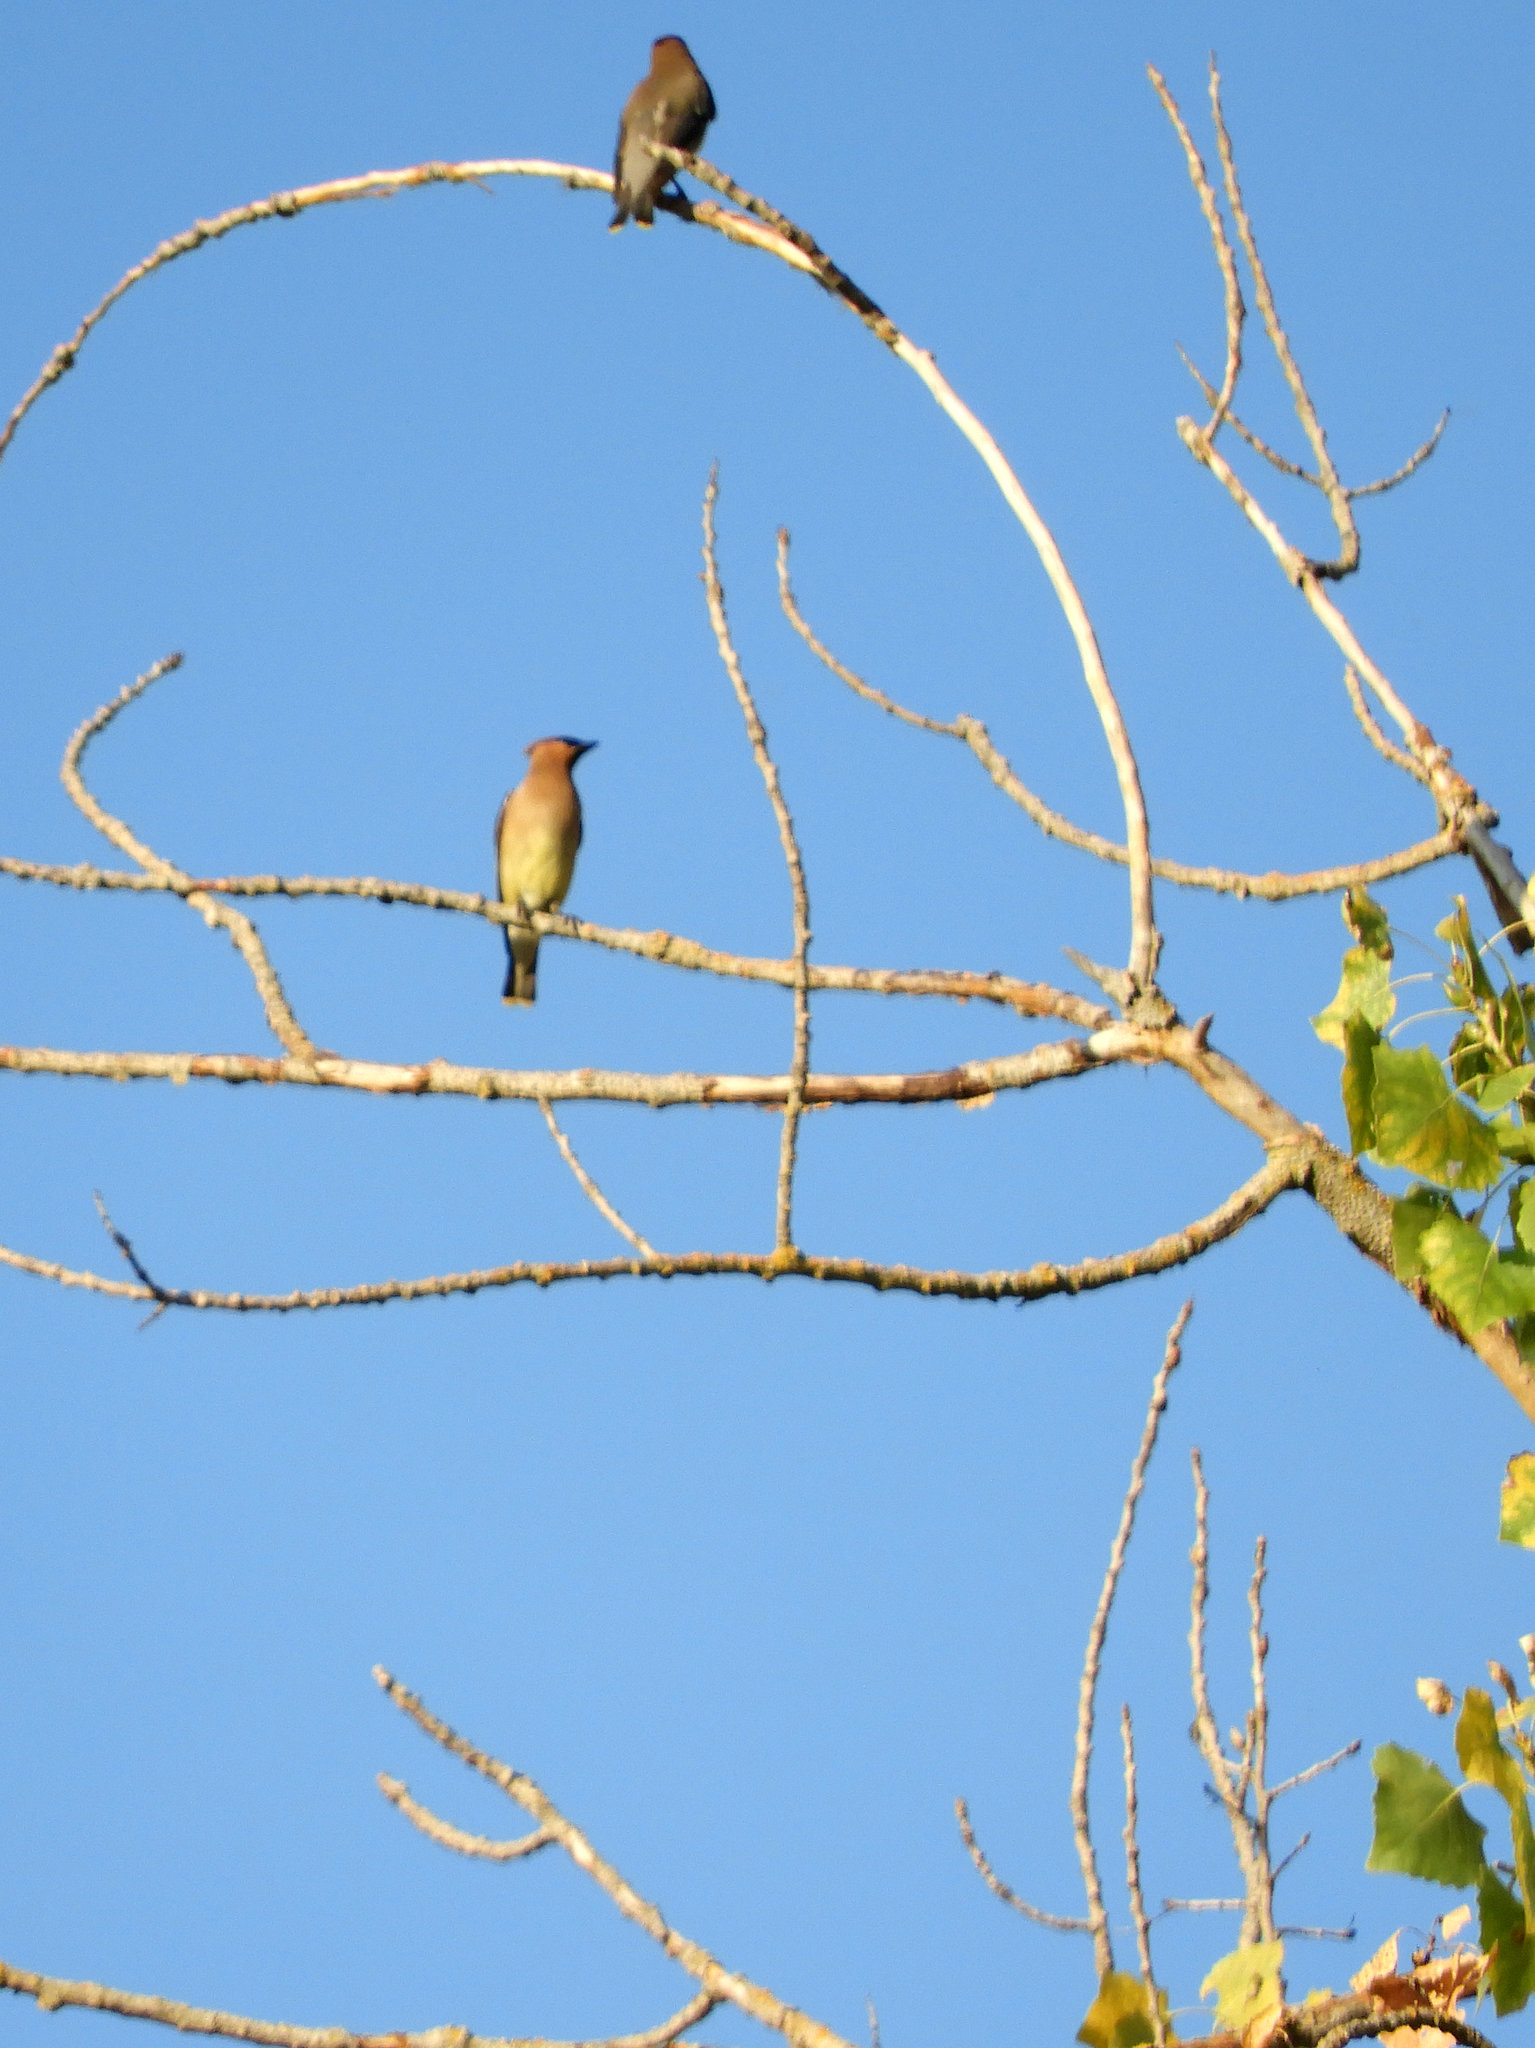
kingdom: Animalia
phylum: Chordata
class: Aves
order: Passeriformes
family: Bombycillidae
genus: Bombycilla
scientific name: Bombycilla cedrorum
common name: Cedar waxwing
